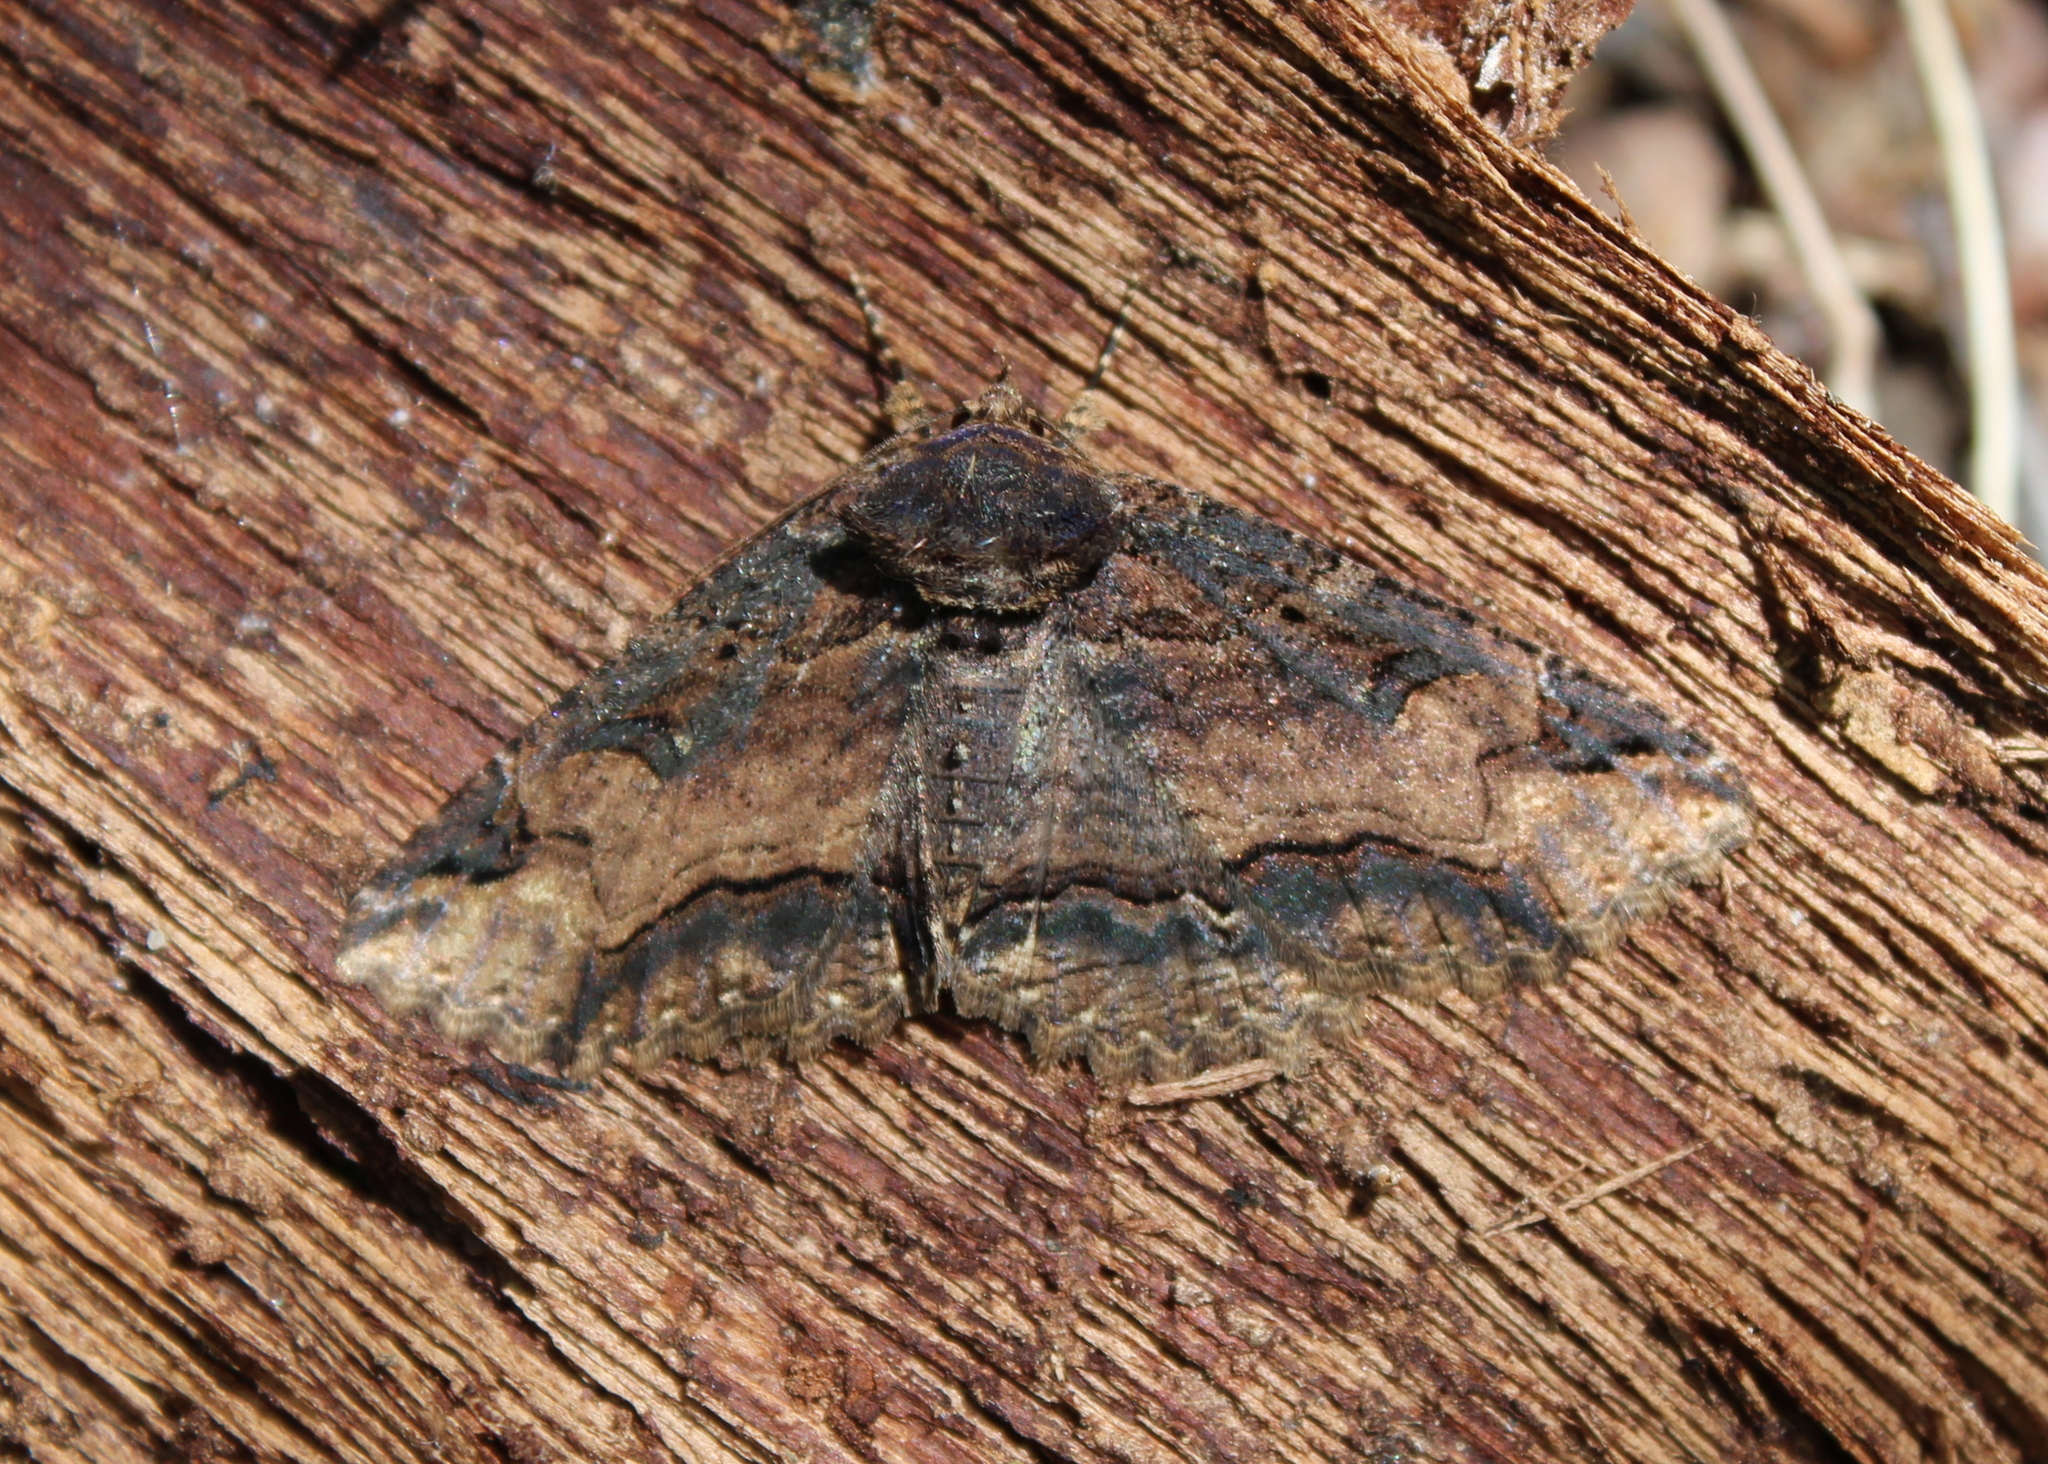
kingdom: Animalia
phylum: Arthropoda
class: Insecta
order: Lepidoptera
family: Erebidae
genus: Zale
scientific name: Zale minerea
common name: Colorful zale moth
